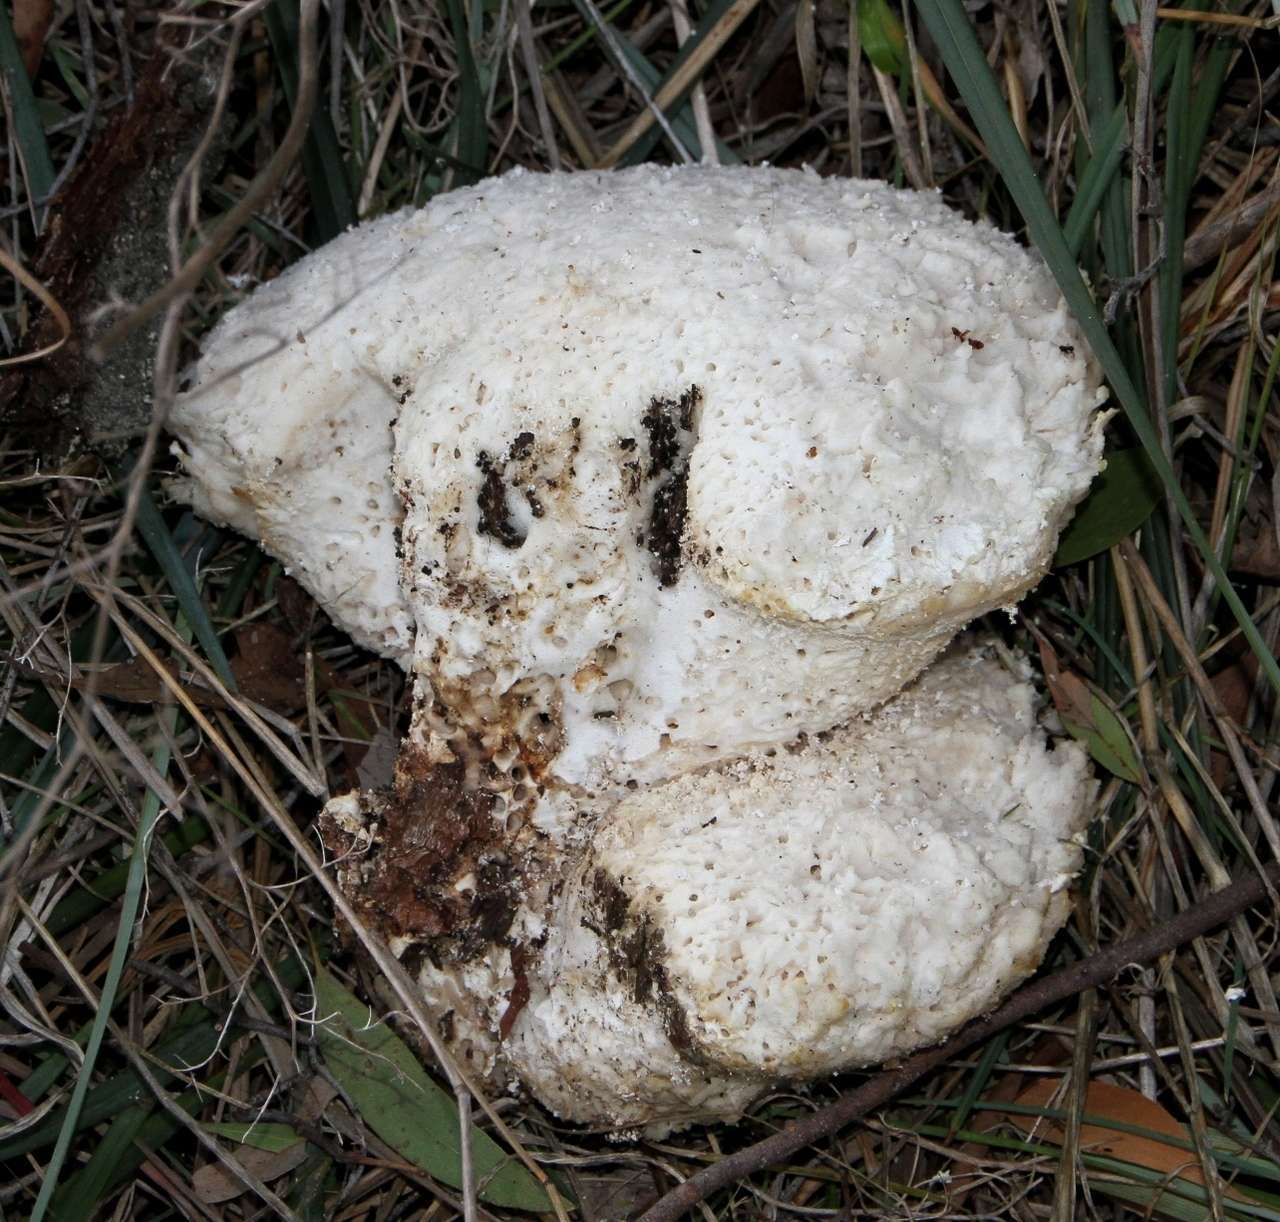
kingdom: Fungi
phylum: Basidiomycota
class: Agaricomycetes
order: Polyporales
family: Laetiporaceae
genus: Laetiporus
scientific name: Laetiporus portentosus
